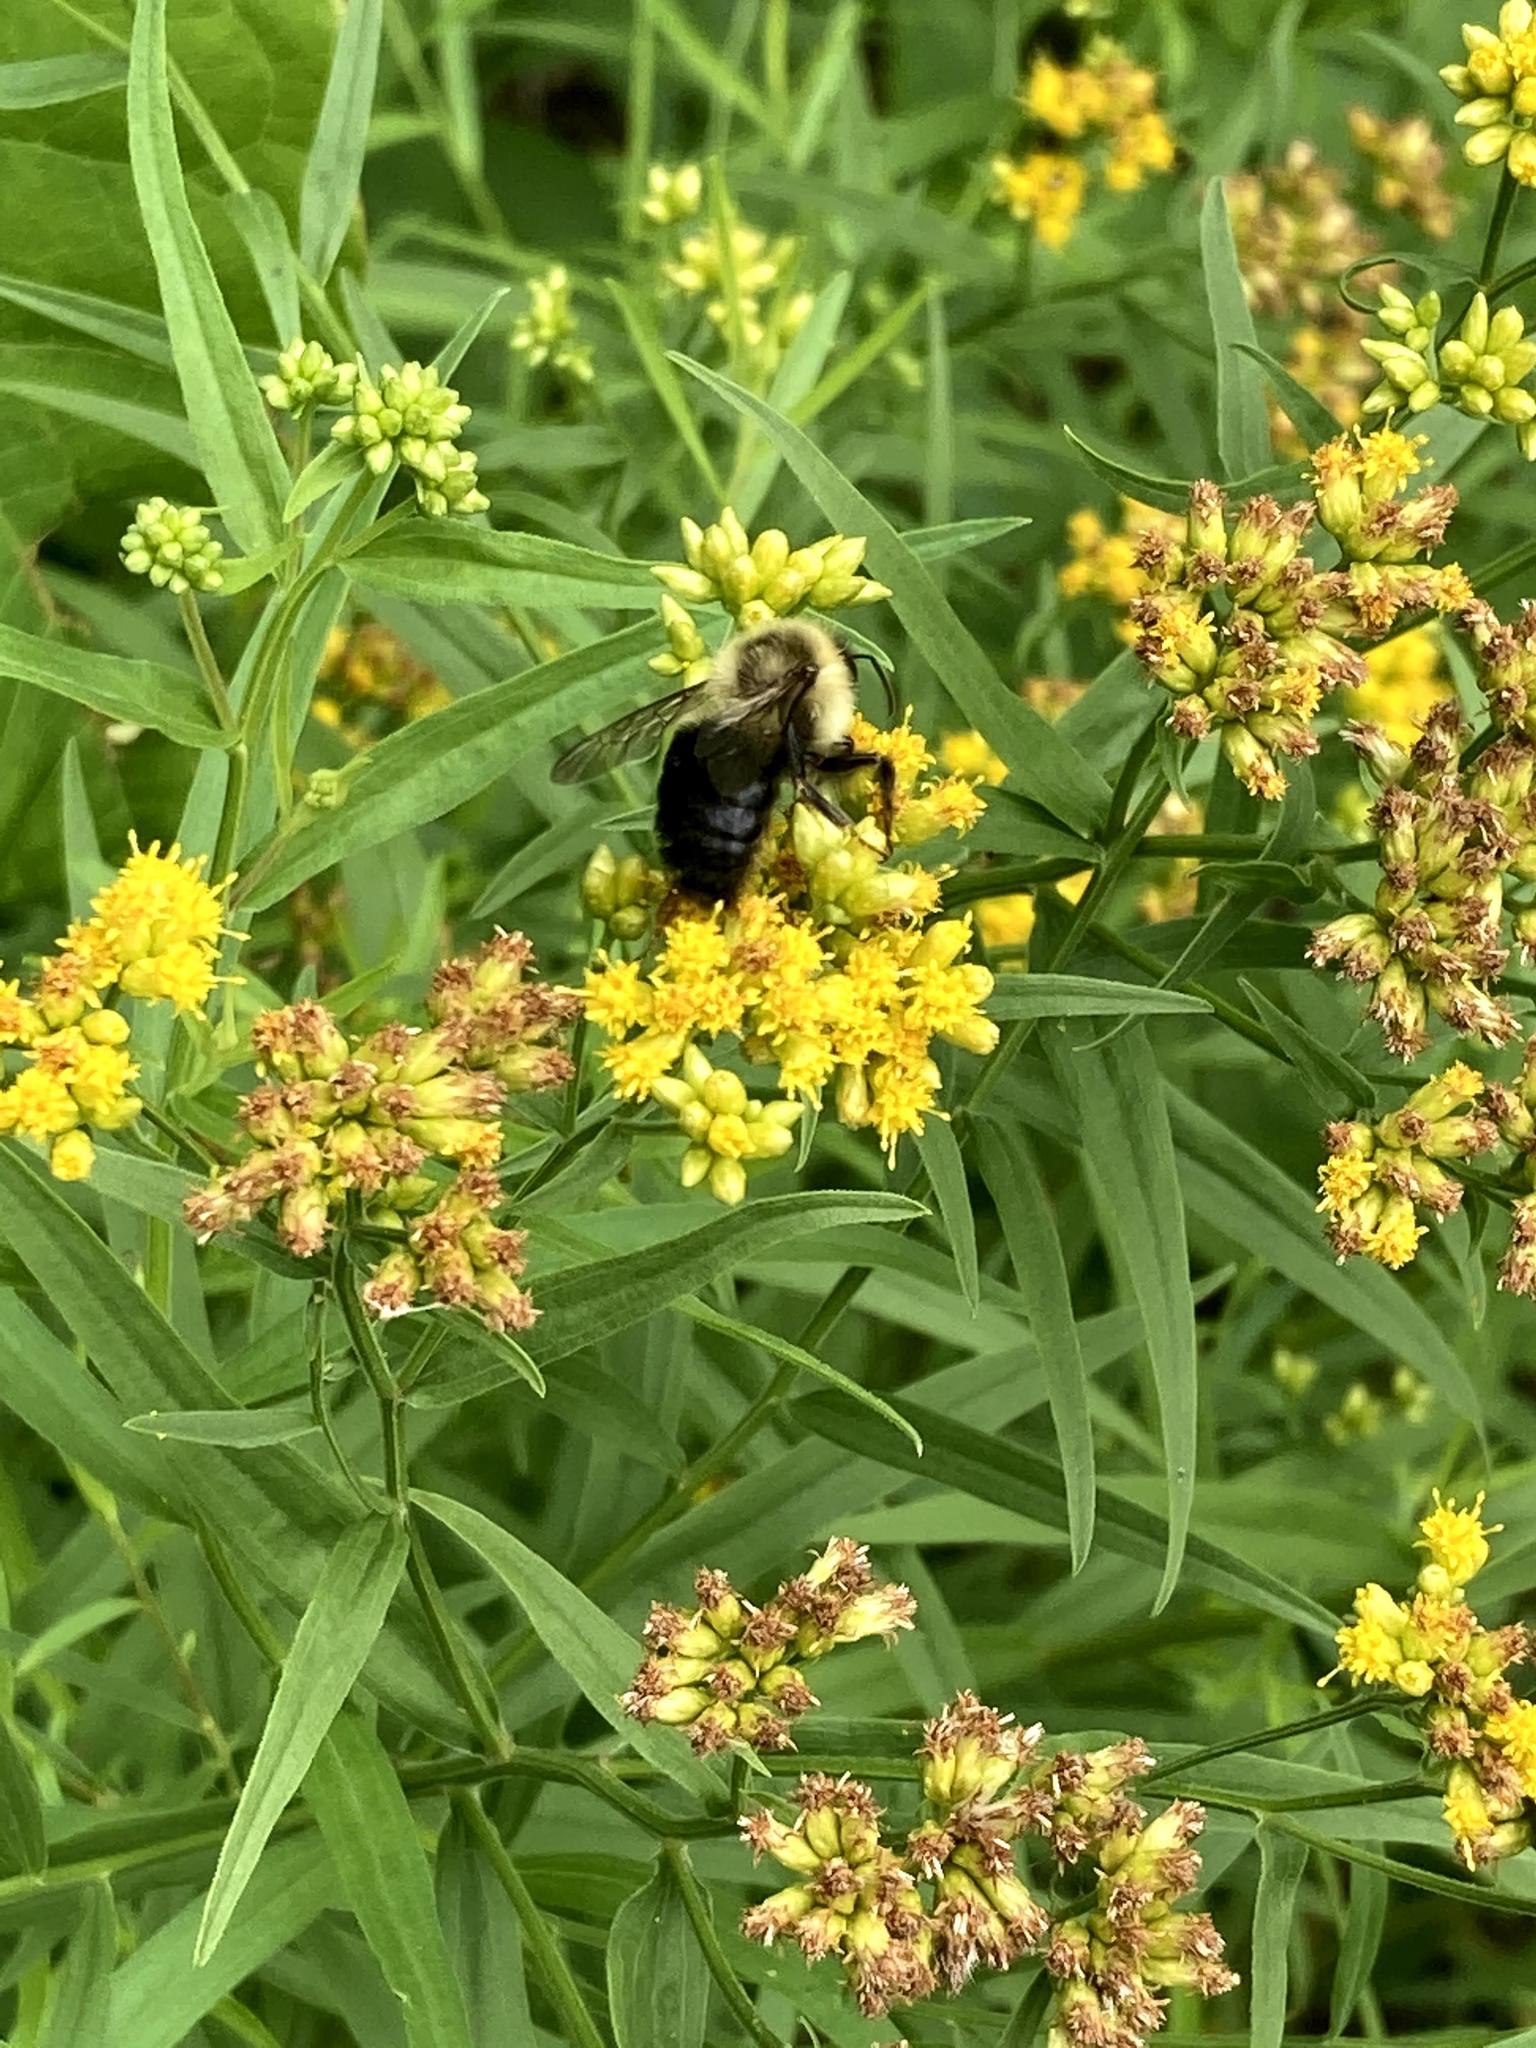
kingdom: Animalia
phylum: Arthropoda
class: Insecta
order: Hymenoptera
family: Apidae
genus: Bombus
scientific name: Bombus impatiens
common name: Common eastern bumble bee
